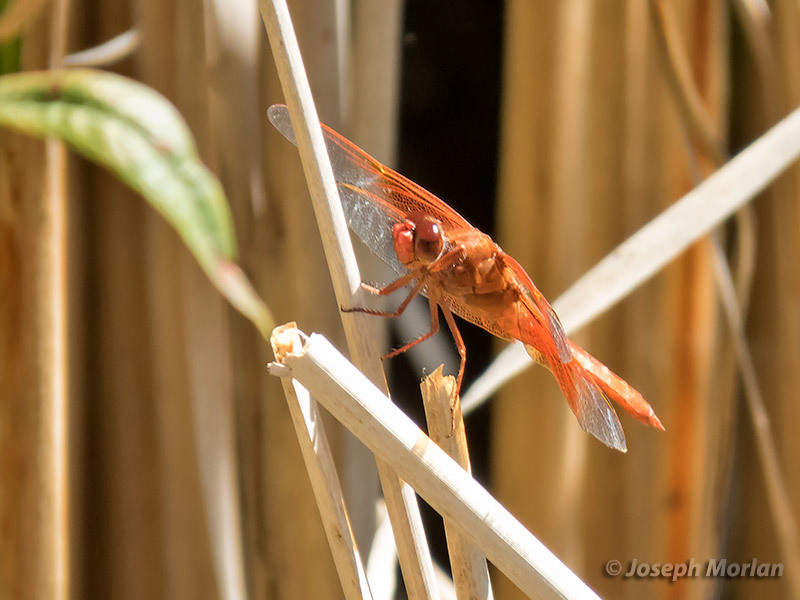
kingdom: Animalia
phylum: Arthropoda
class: Insecta
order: Odonata
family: Libellulidae
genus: Libellula
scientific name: Libellula saturata
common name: Flame skimmer
